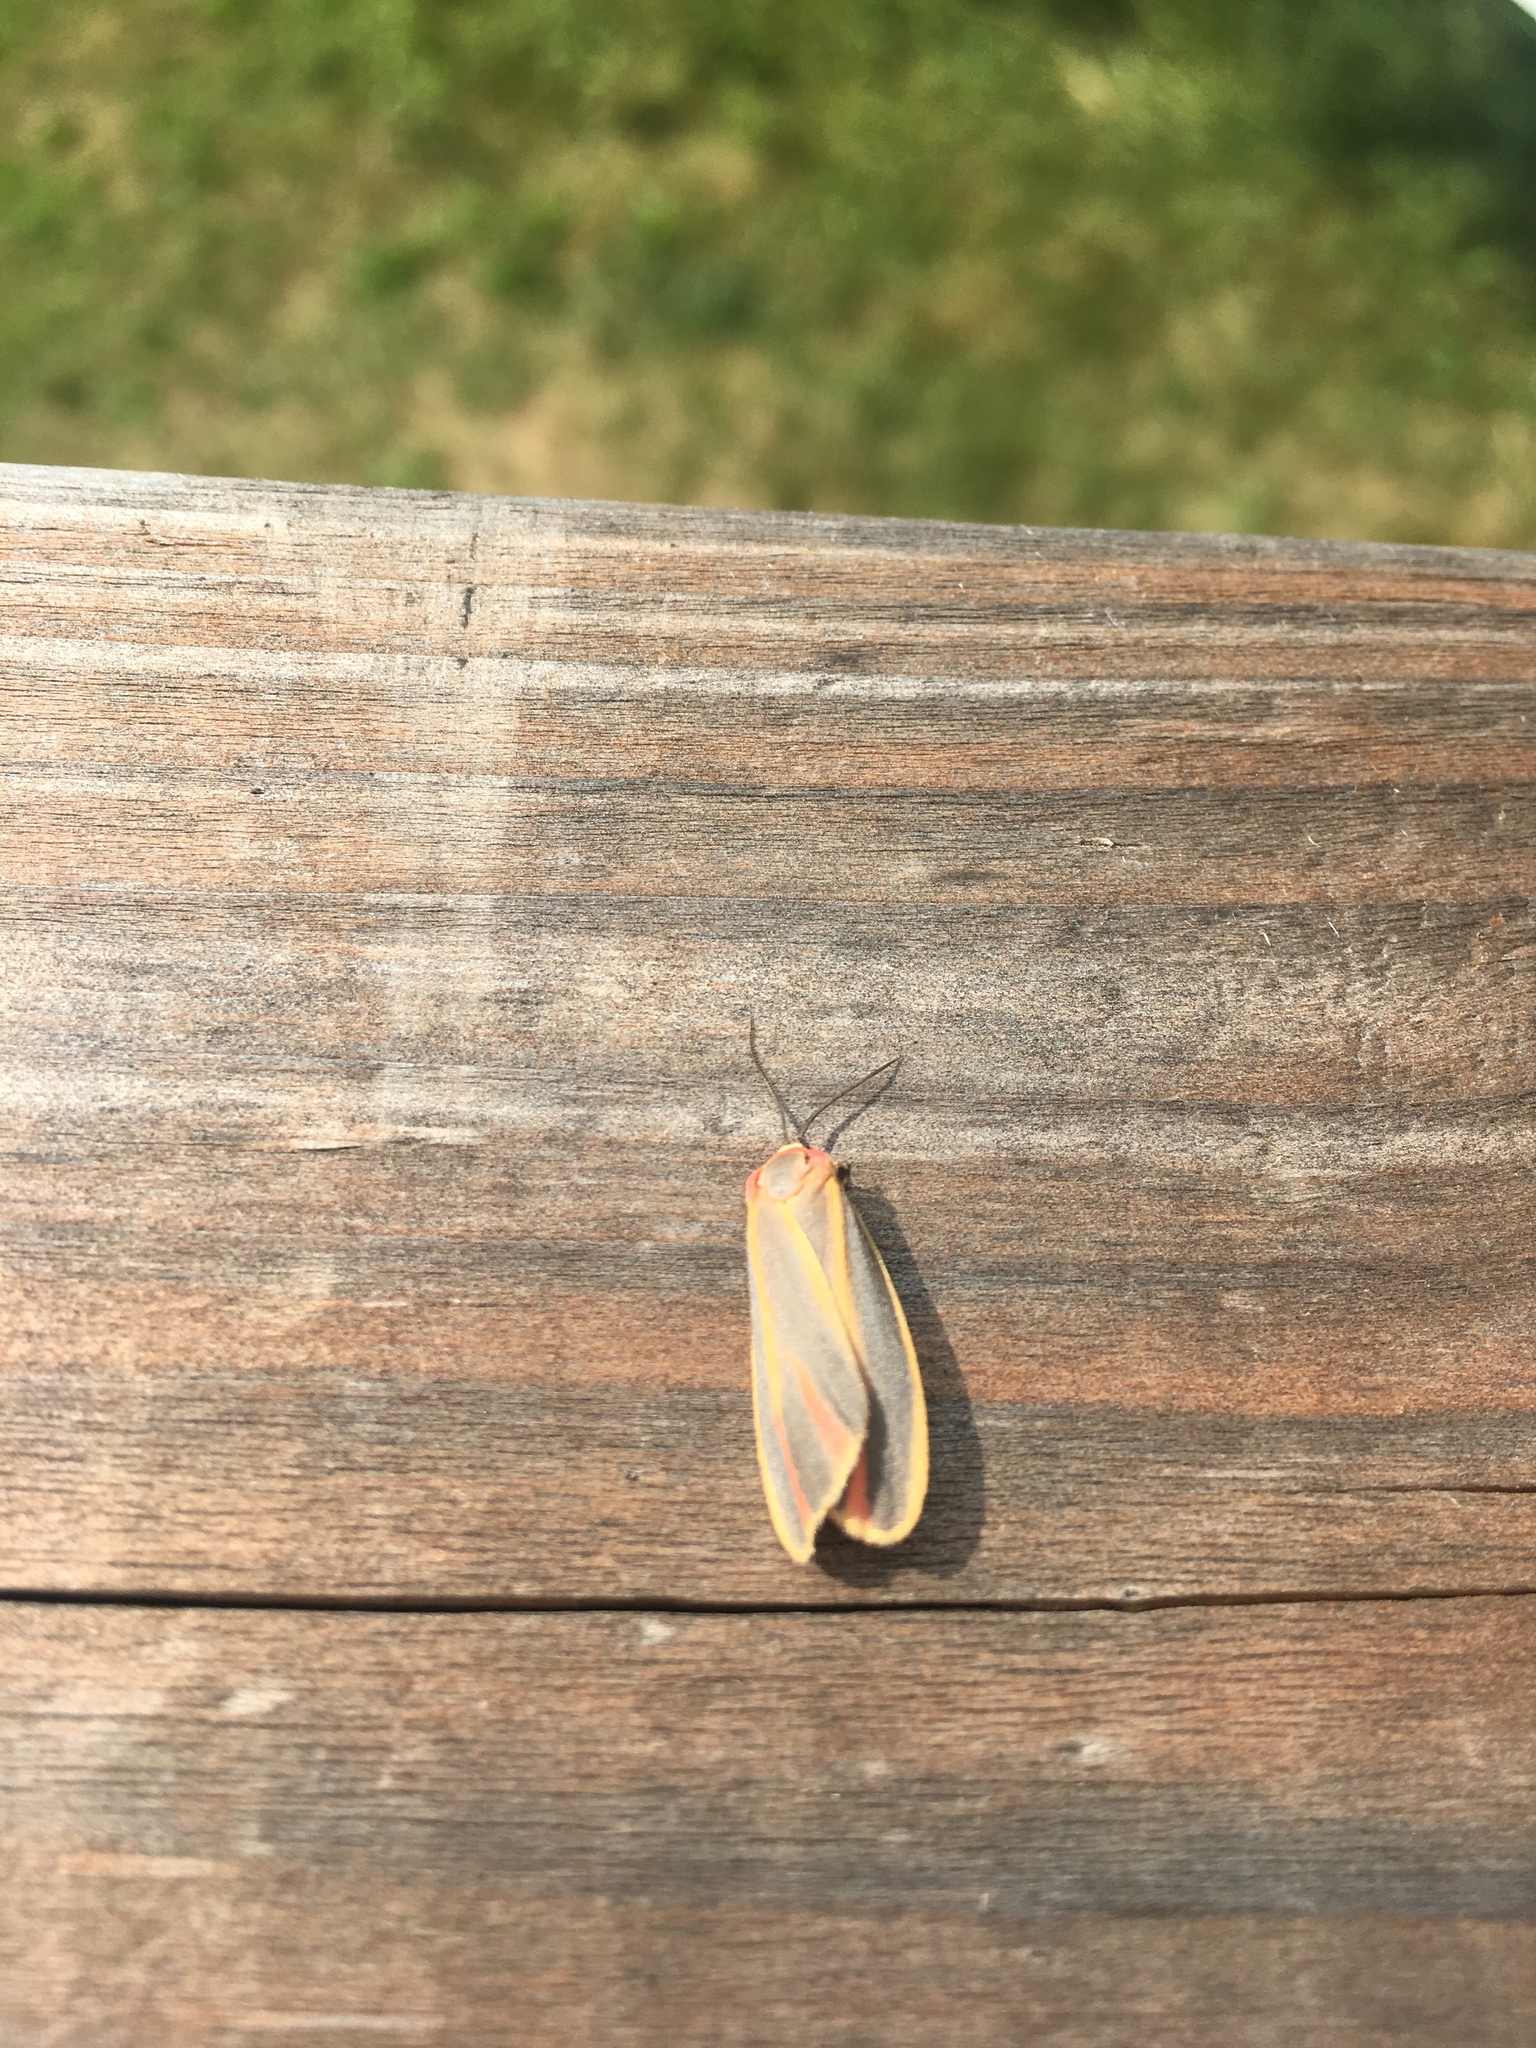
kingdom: Animalia
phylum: Arthropoda
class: Insecta
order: Lepidoptera
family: Erebidae
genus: Hypoprepia
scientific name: Hypoprepia fucosa
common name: Painted lichen moth
